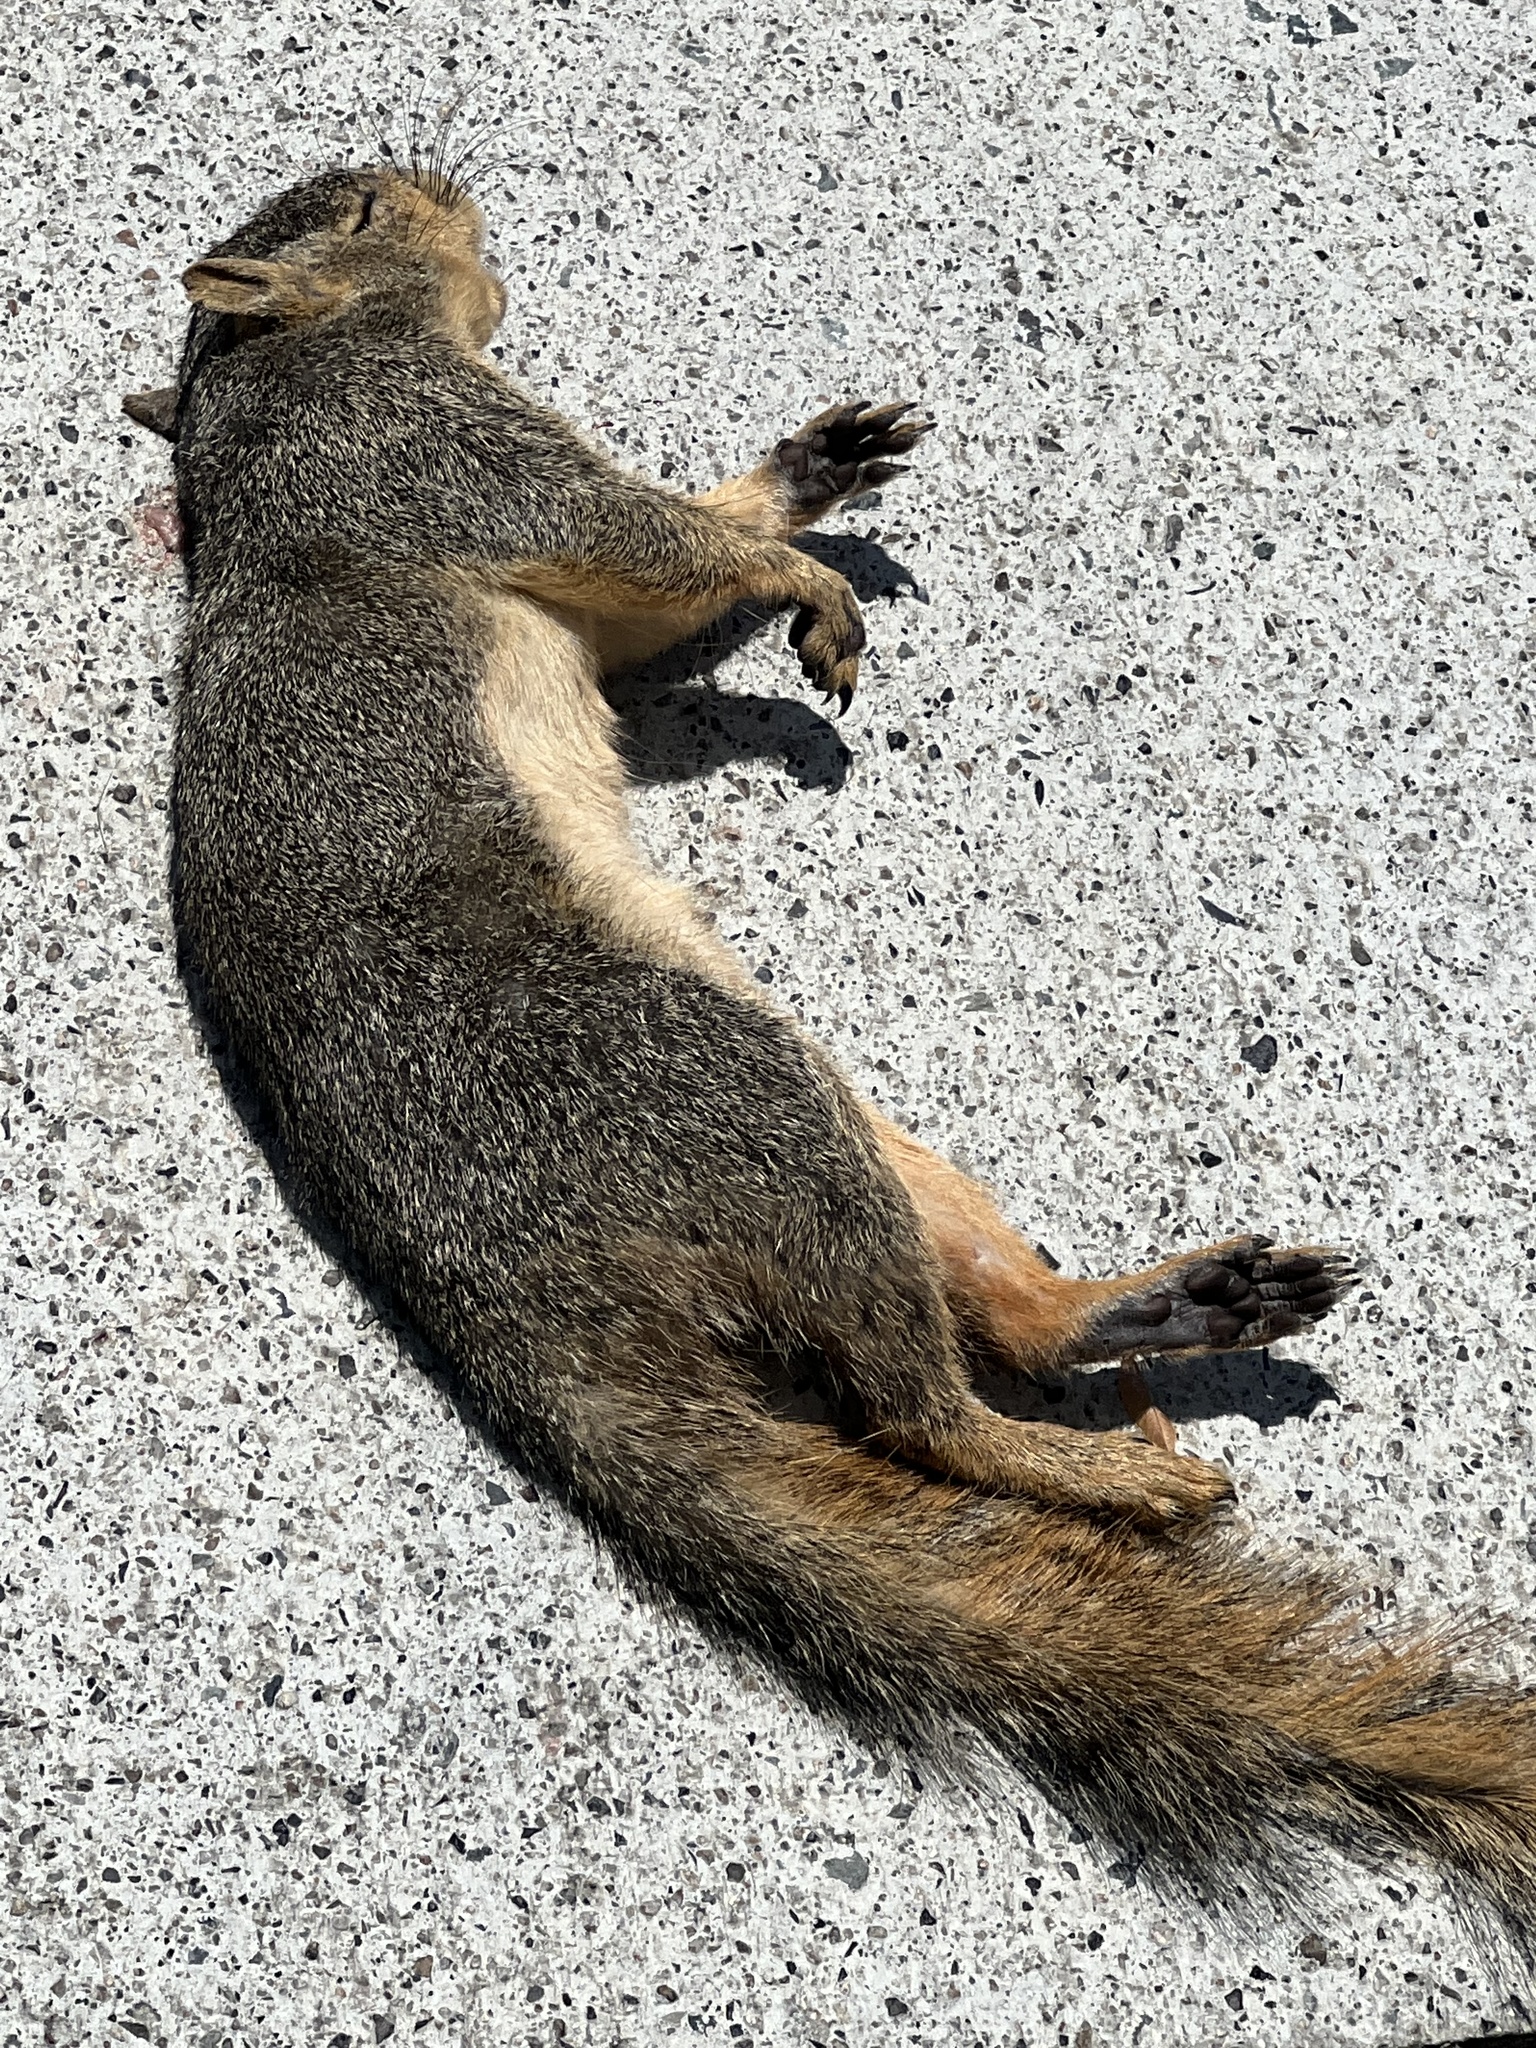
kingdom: Animalia
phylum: Chordata
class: Mammalia
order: Rodentia
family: Sciuridae
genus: Sciurus
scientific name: Sciurus niger
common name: Fox squirrel
